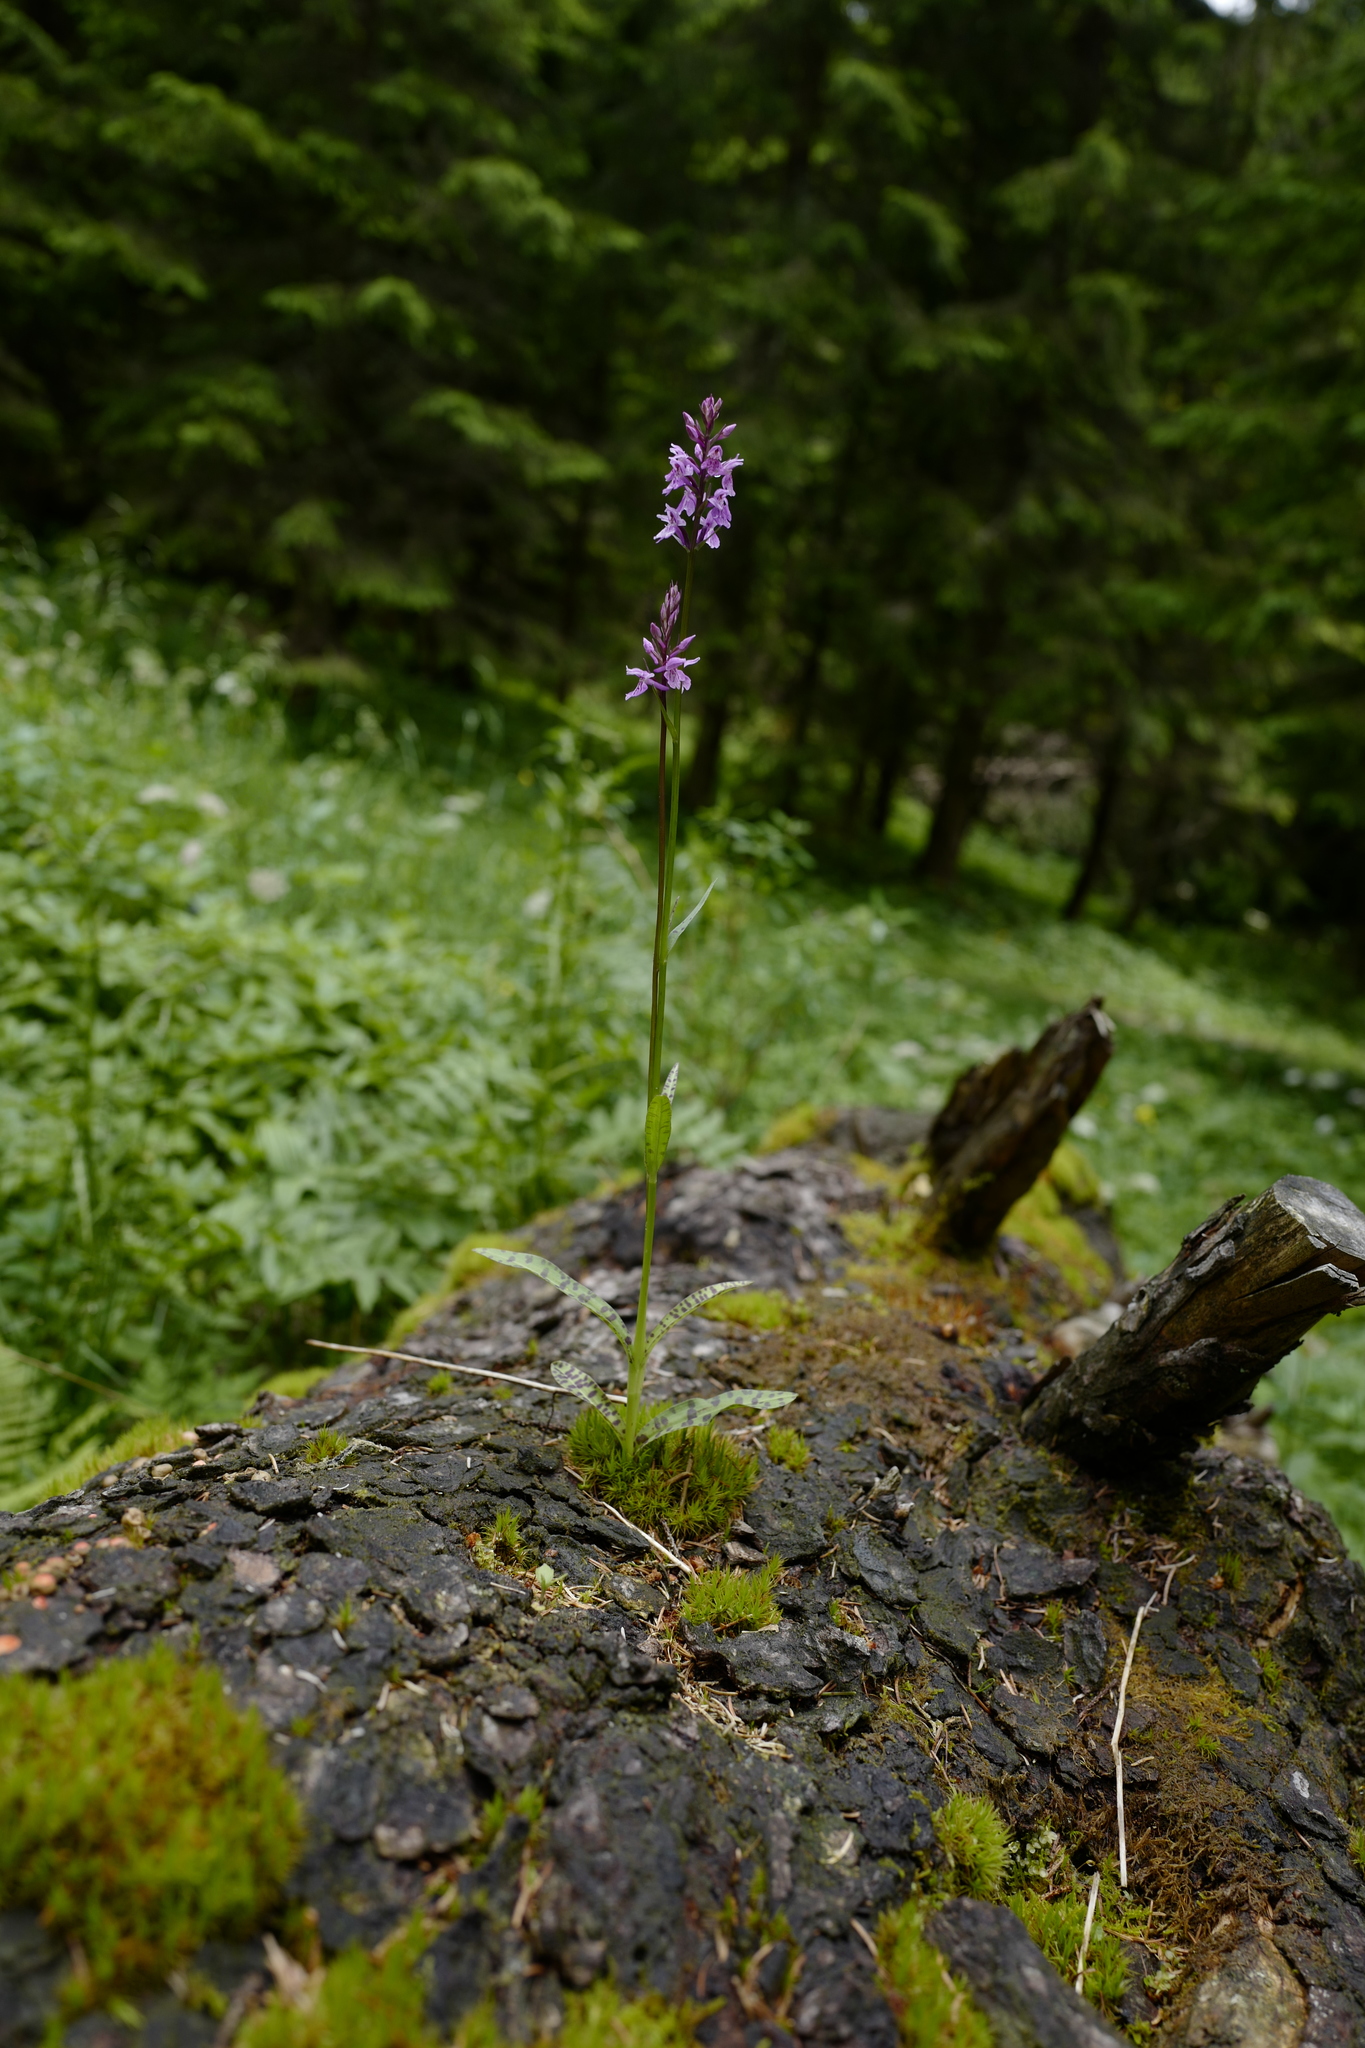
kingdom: Plantae
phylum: Tracheophyta
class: Liliopsida
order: Asparagales
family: Orchidaceae
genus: Dactylorhiza
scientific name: Dactylorhiza maculata
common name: Heath spotted-orchid
